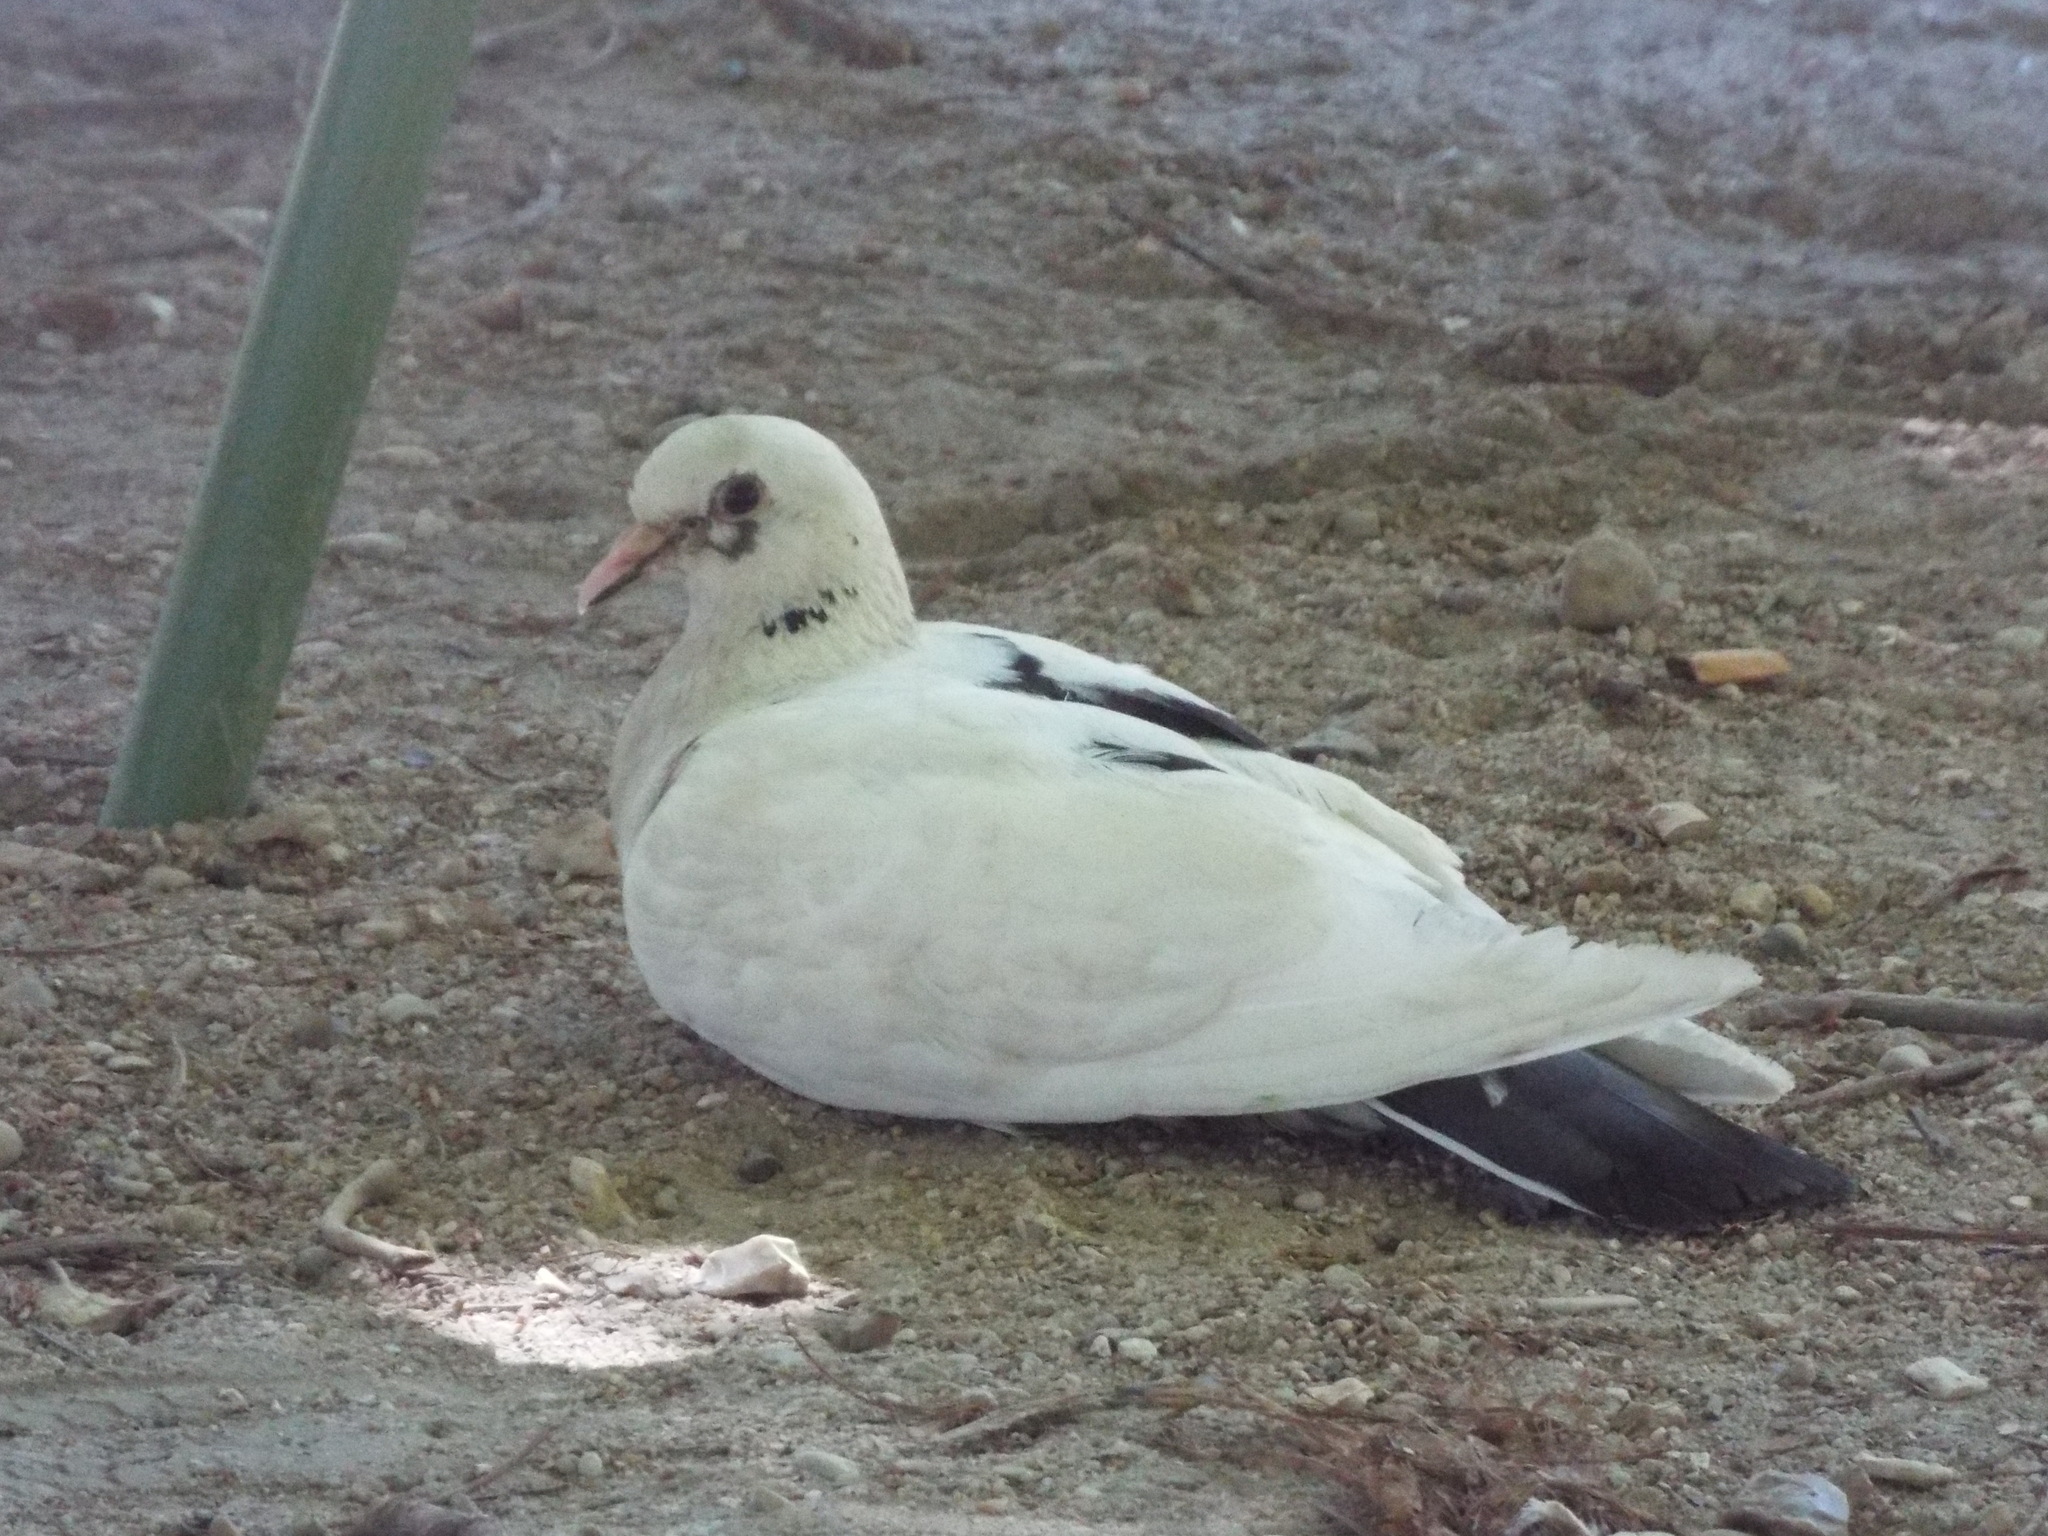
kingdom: Animalia
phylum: Chordata
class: Aves
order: Columbiformes
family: Columbidae
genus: Columba
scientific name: Columba livia
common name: Rock pigeon
